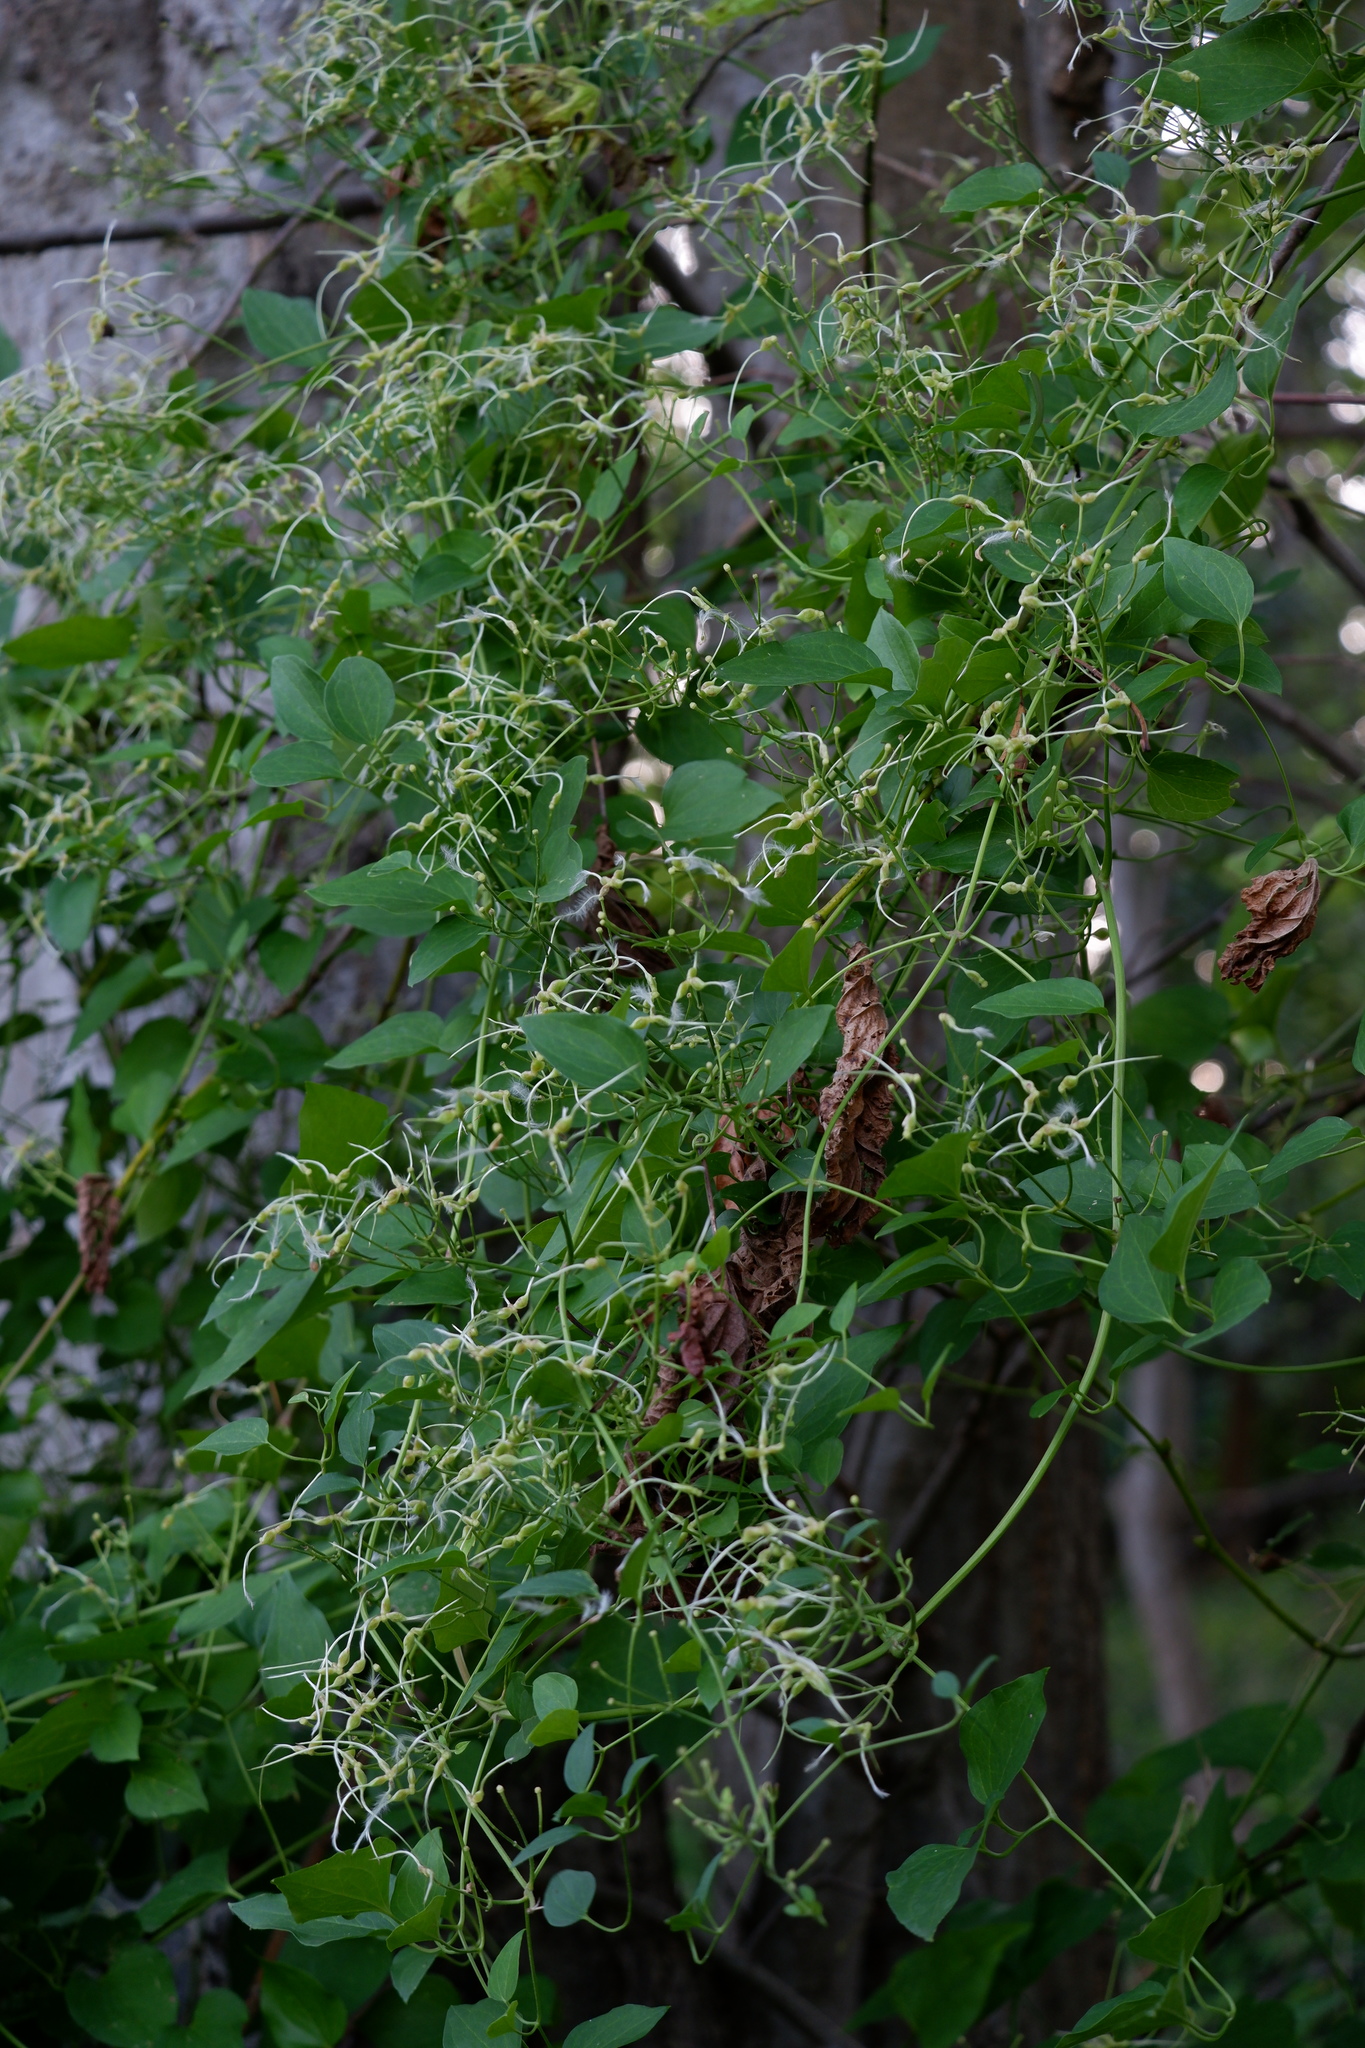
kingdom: Plantae
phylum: Tracheophyta
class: Magnoliopsida
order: Ranunculales
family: Ranunculaceae
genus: Clematis
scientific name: Clematis terniflora
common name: Sweet autumn clematis
